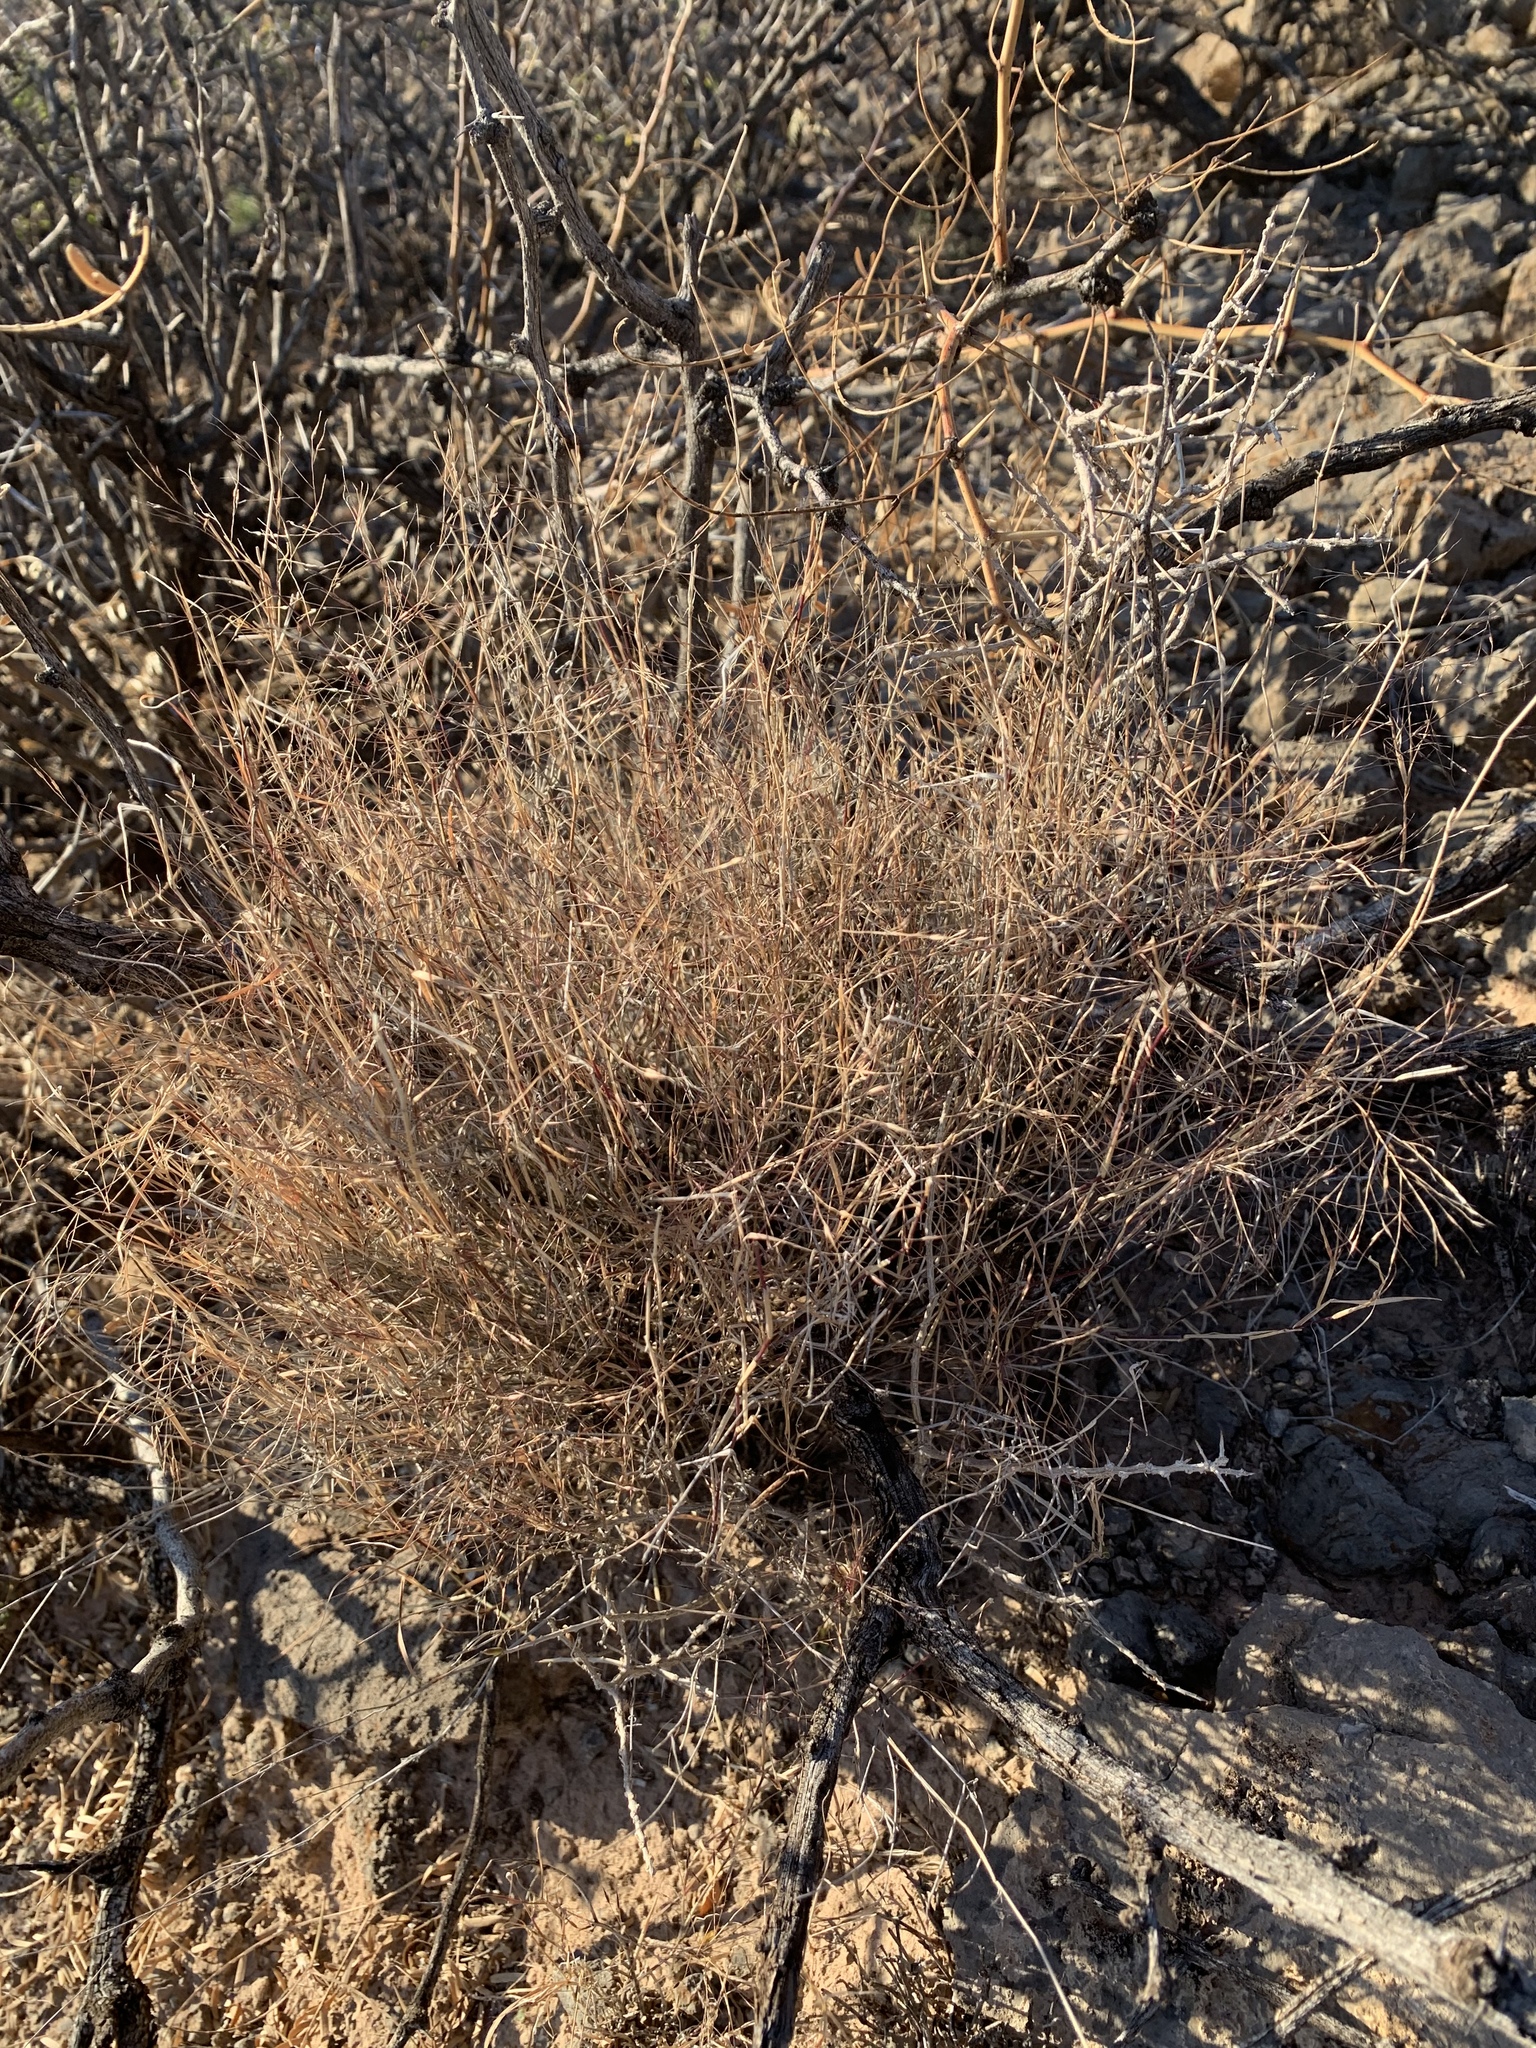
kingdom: Plantae
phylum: Tracheophyta
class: Liliopsida
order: Poales
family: Poaceae
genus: Muhlenbergia
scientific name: Muhlenbergia porteri
